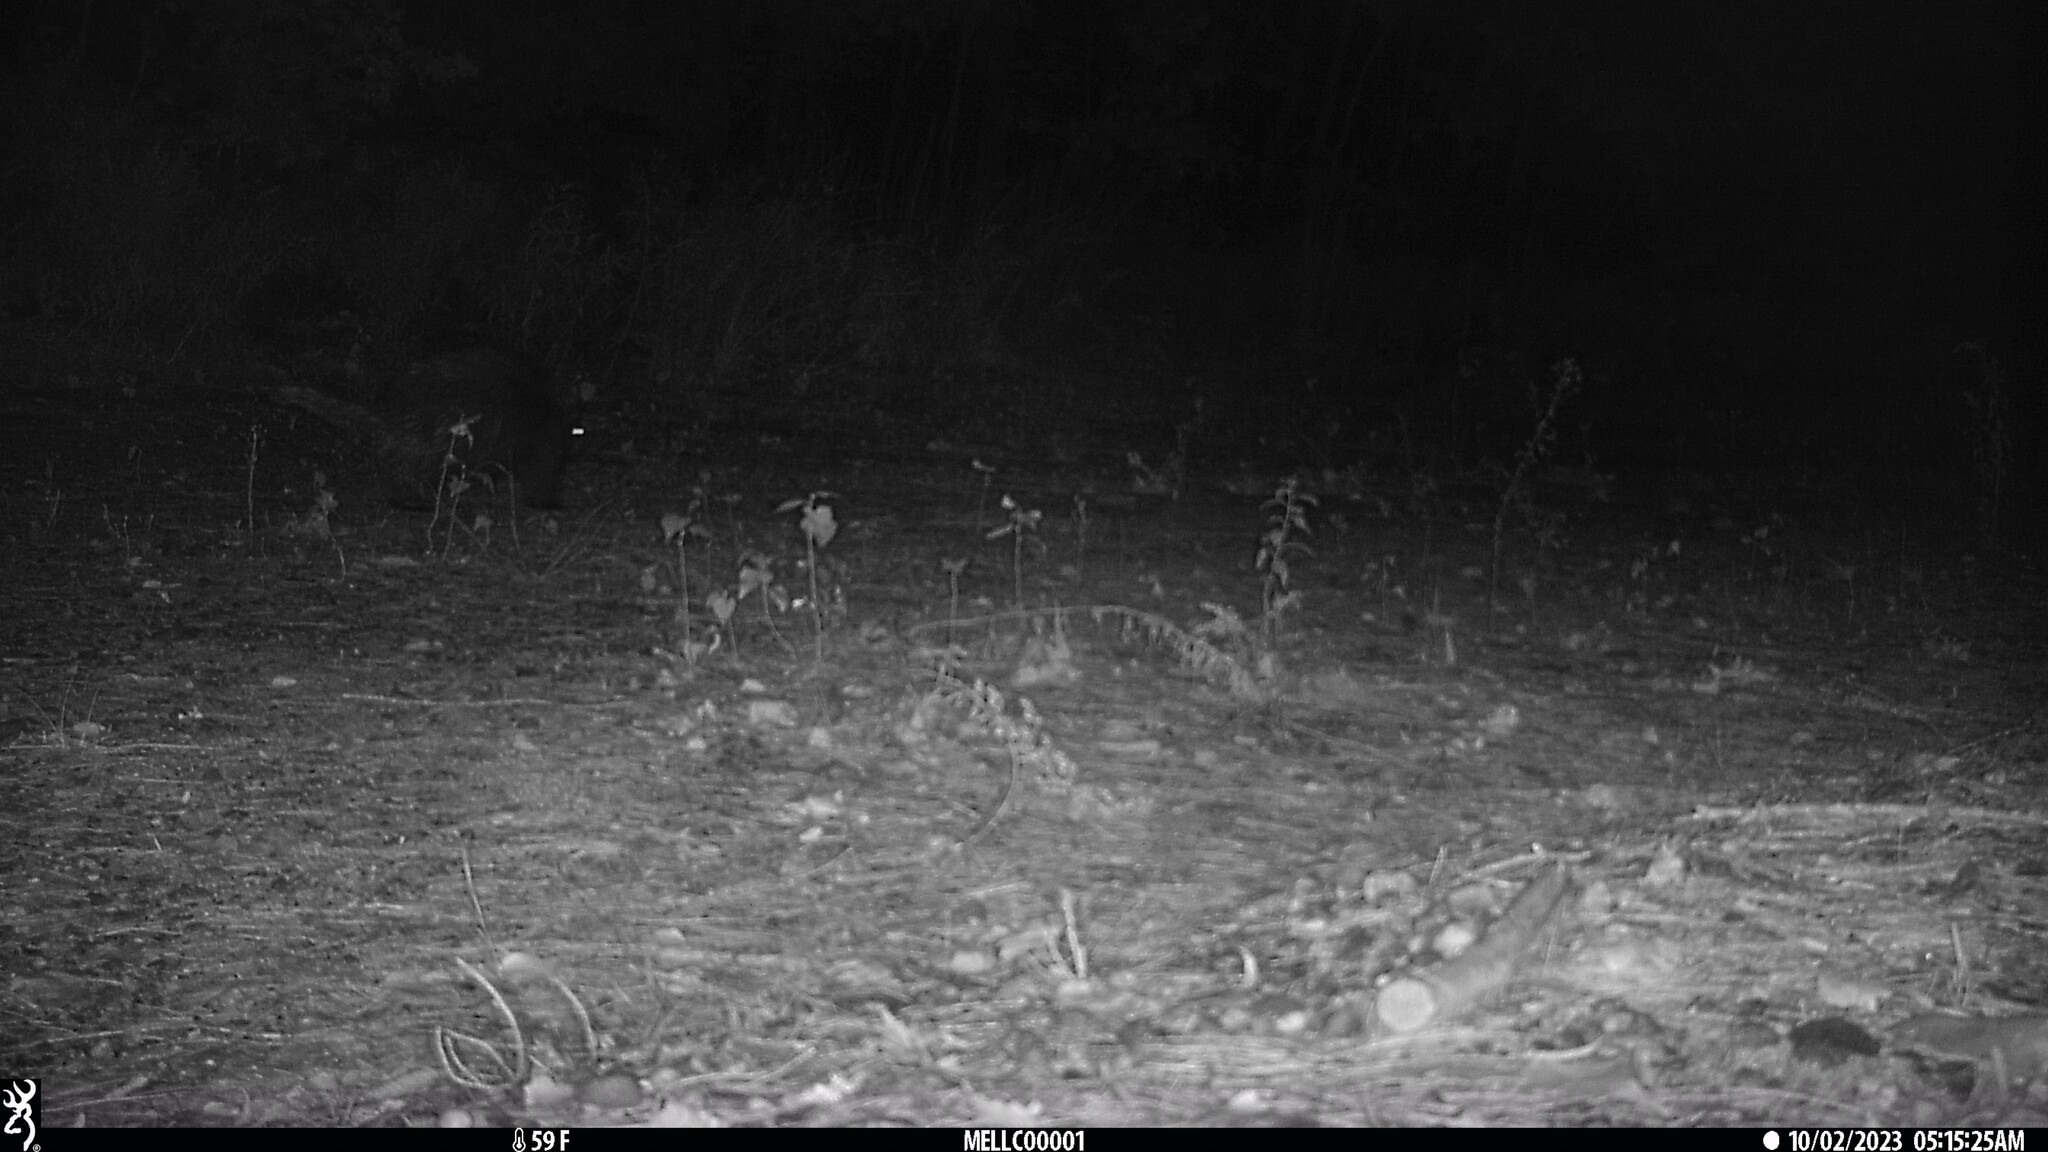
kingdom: Animalia
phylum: Chordata
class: Mammalia
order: Rodentia
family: Erethizontidae
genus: Erethizon
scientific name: Erethizon dorsatus
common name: North american porcupine
